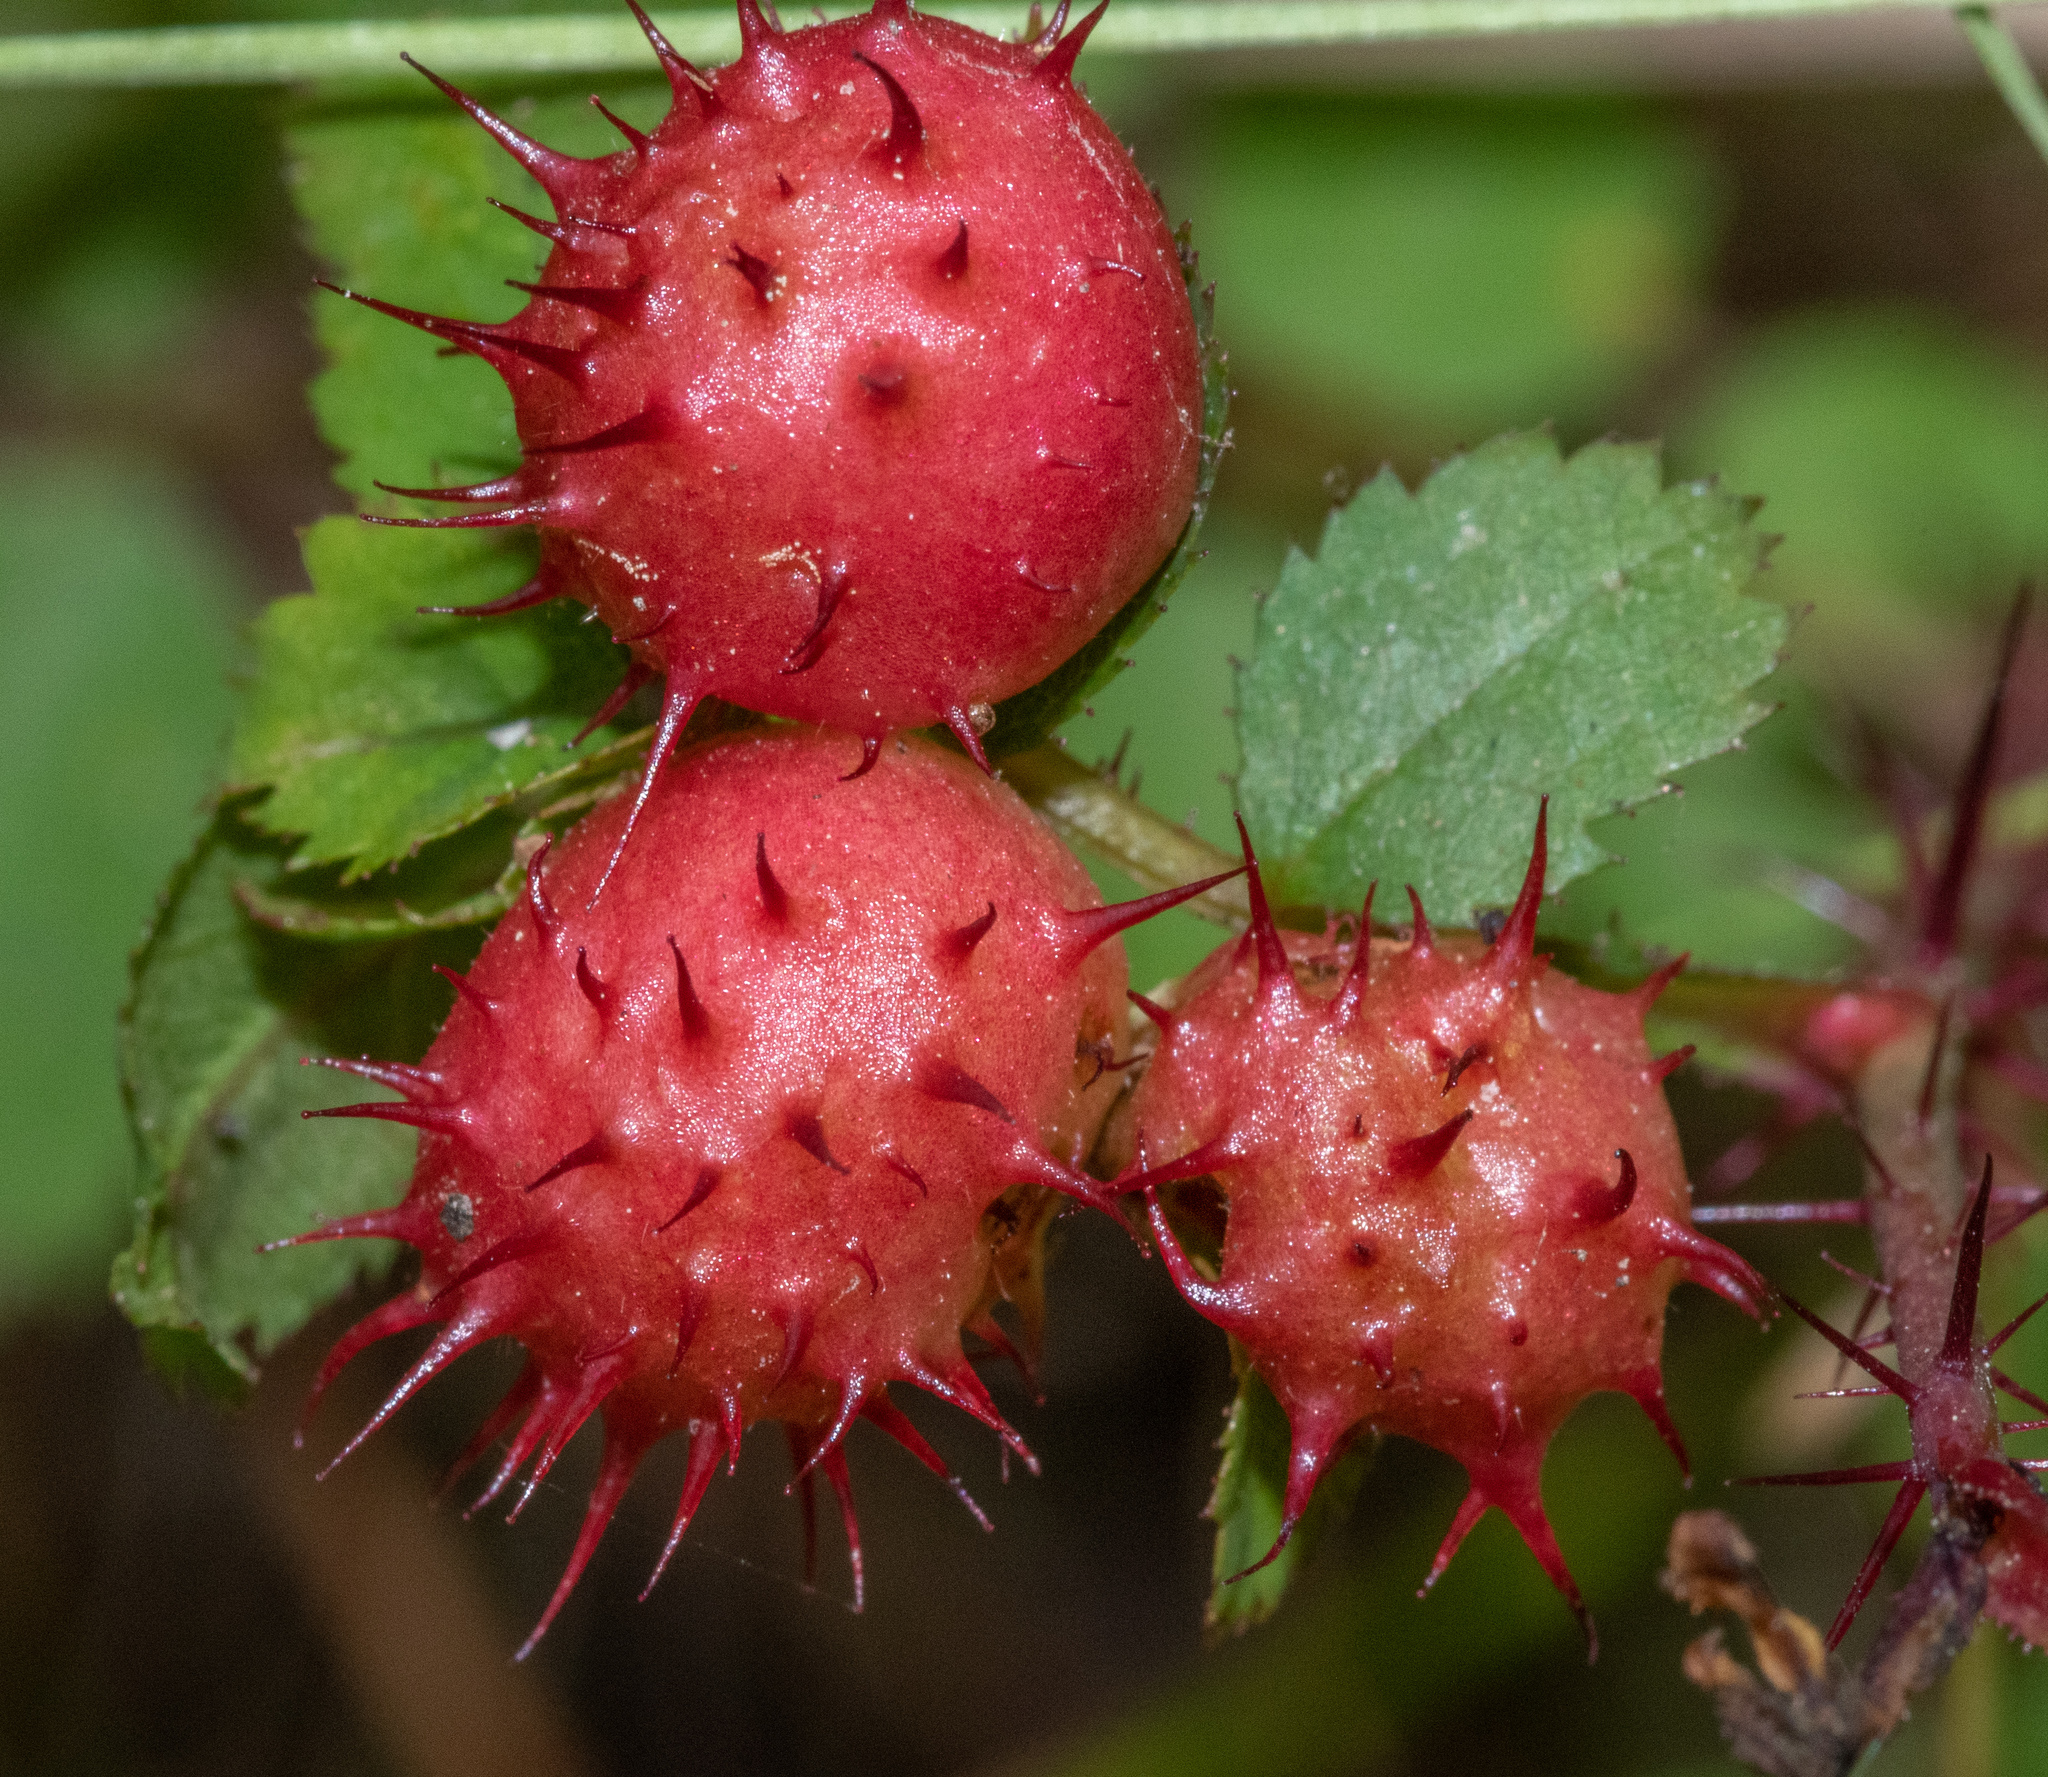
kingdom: Animalia
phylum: Arthropoda
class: Insecta
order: Hymenoptera
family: Cynipidae
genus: Diplolepis
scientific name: Diplolepis polita
